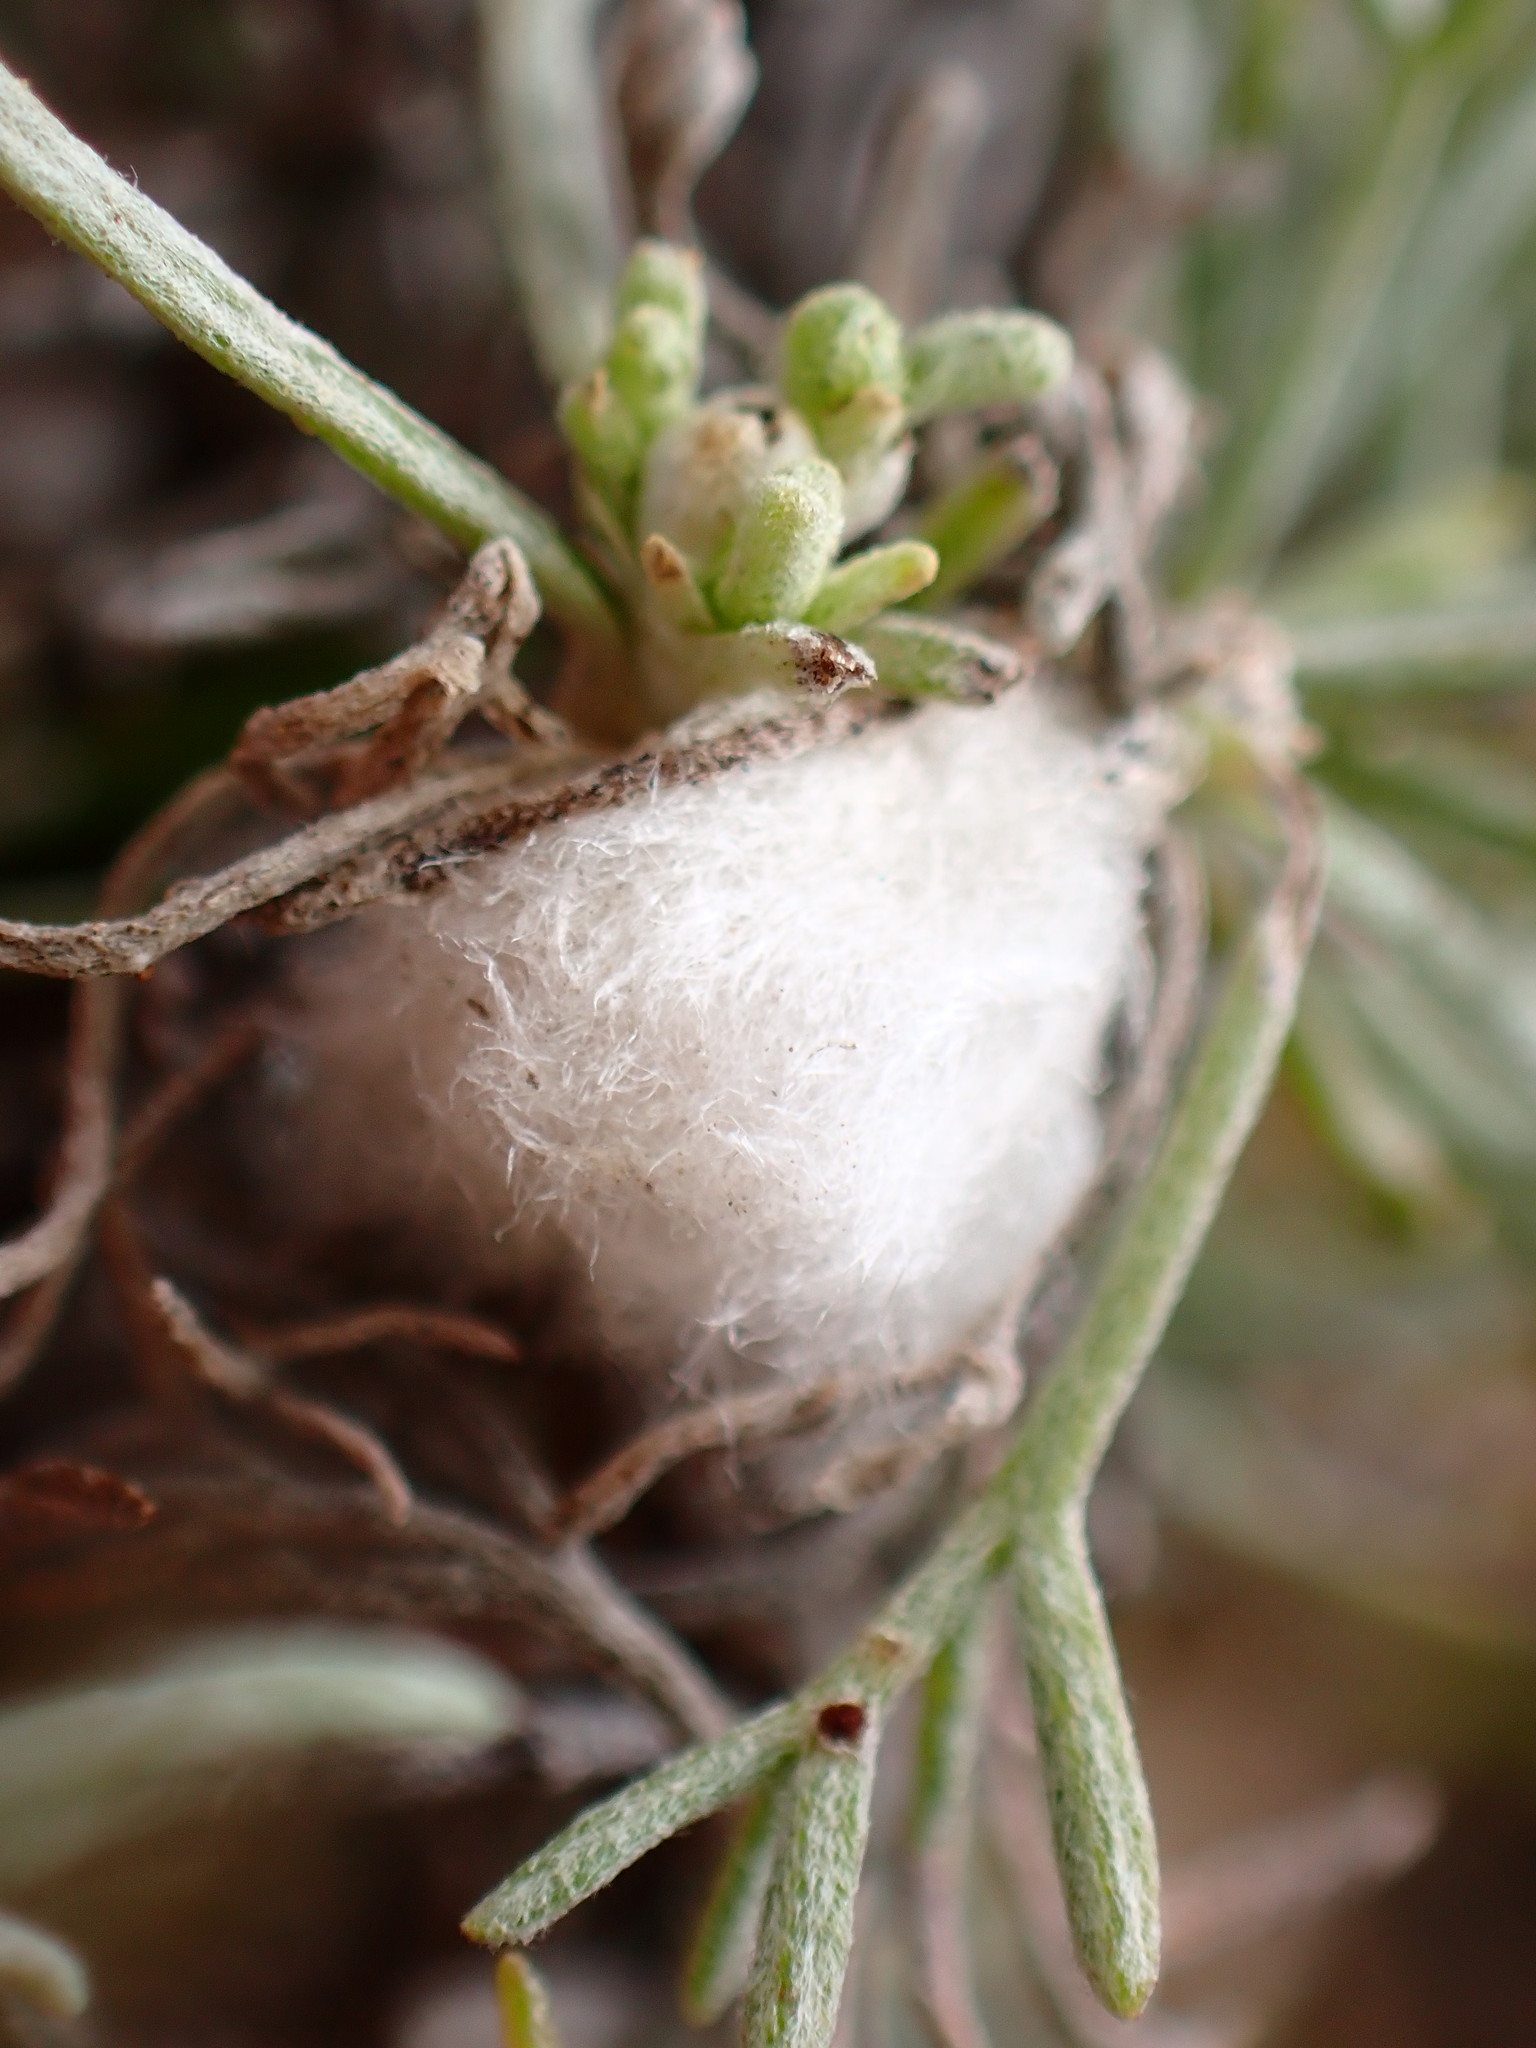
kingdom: Animalia
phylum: Arthropoda
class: Insecta
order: Diptera
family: Cecidomyiidae
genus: Rhopalomyia
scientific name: Rhopalomyia floccosa
